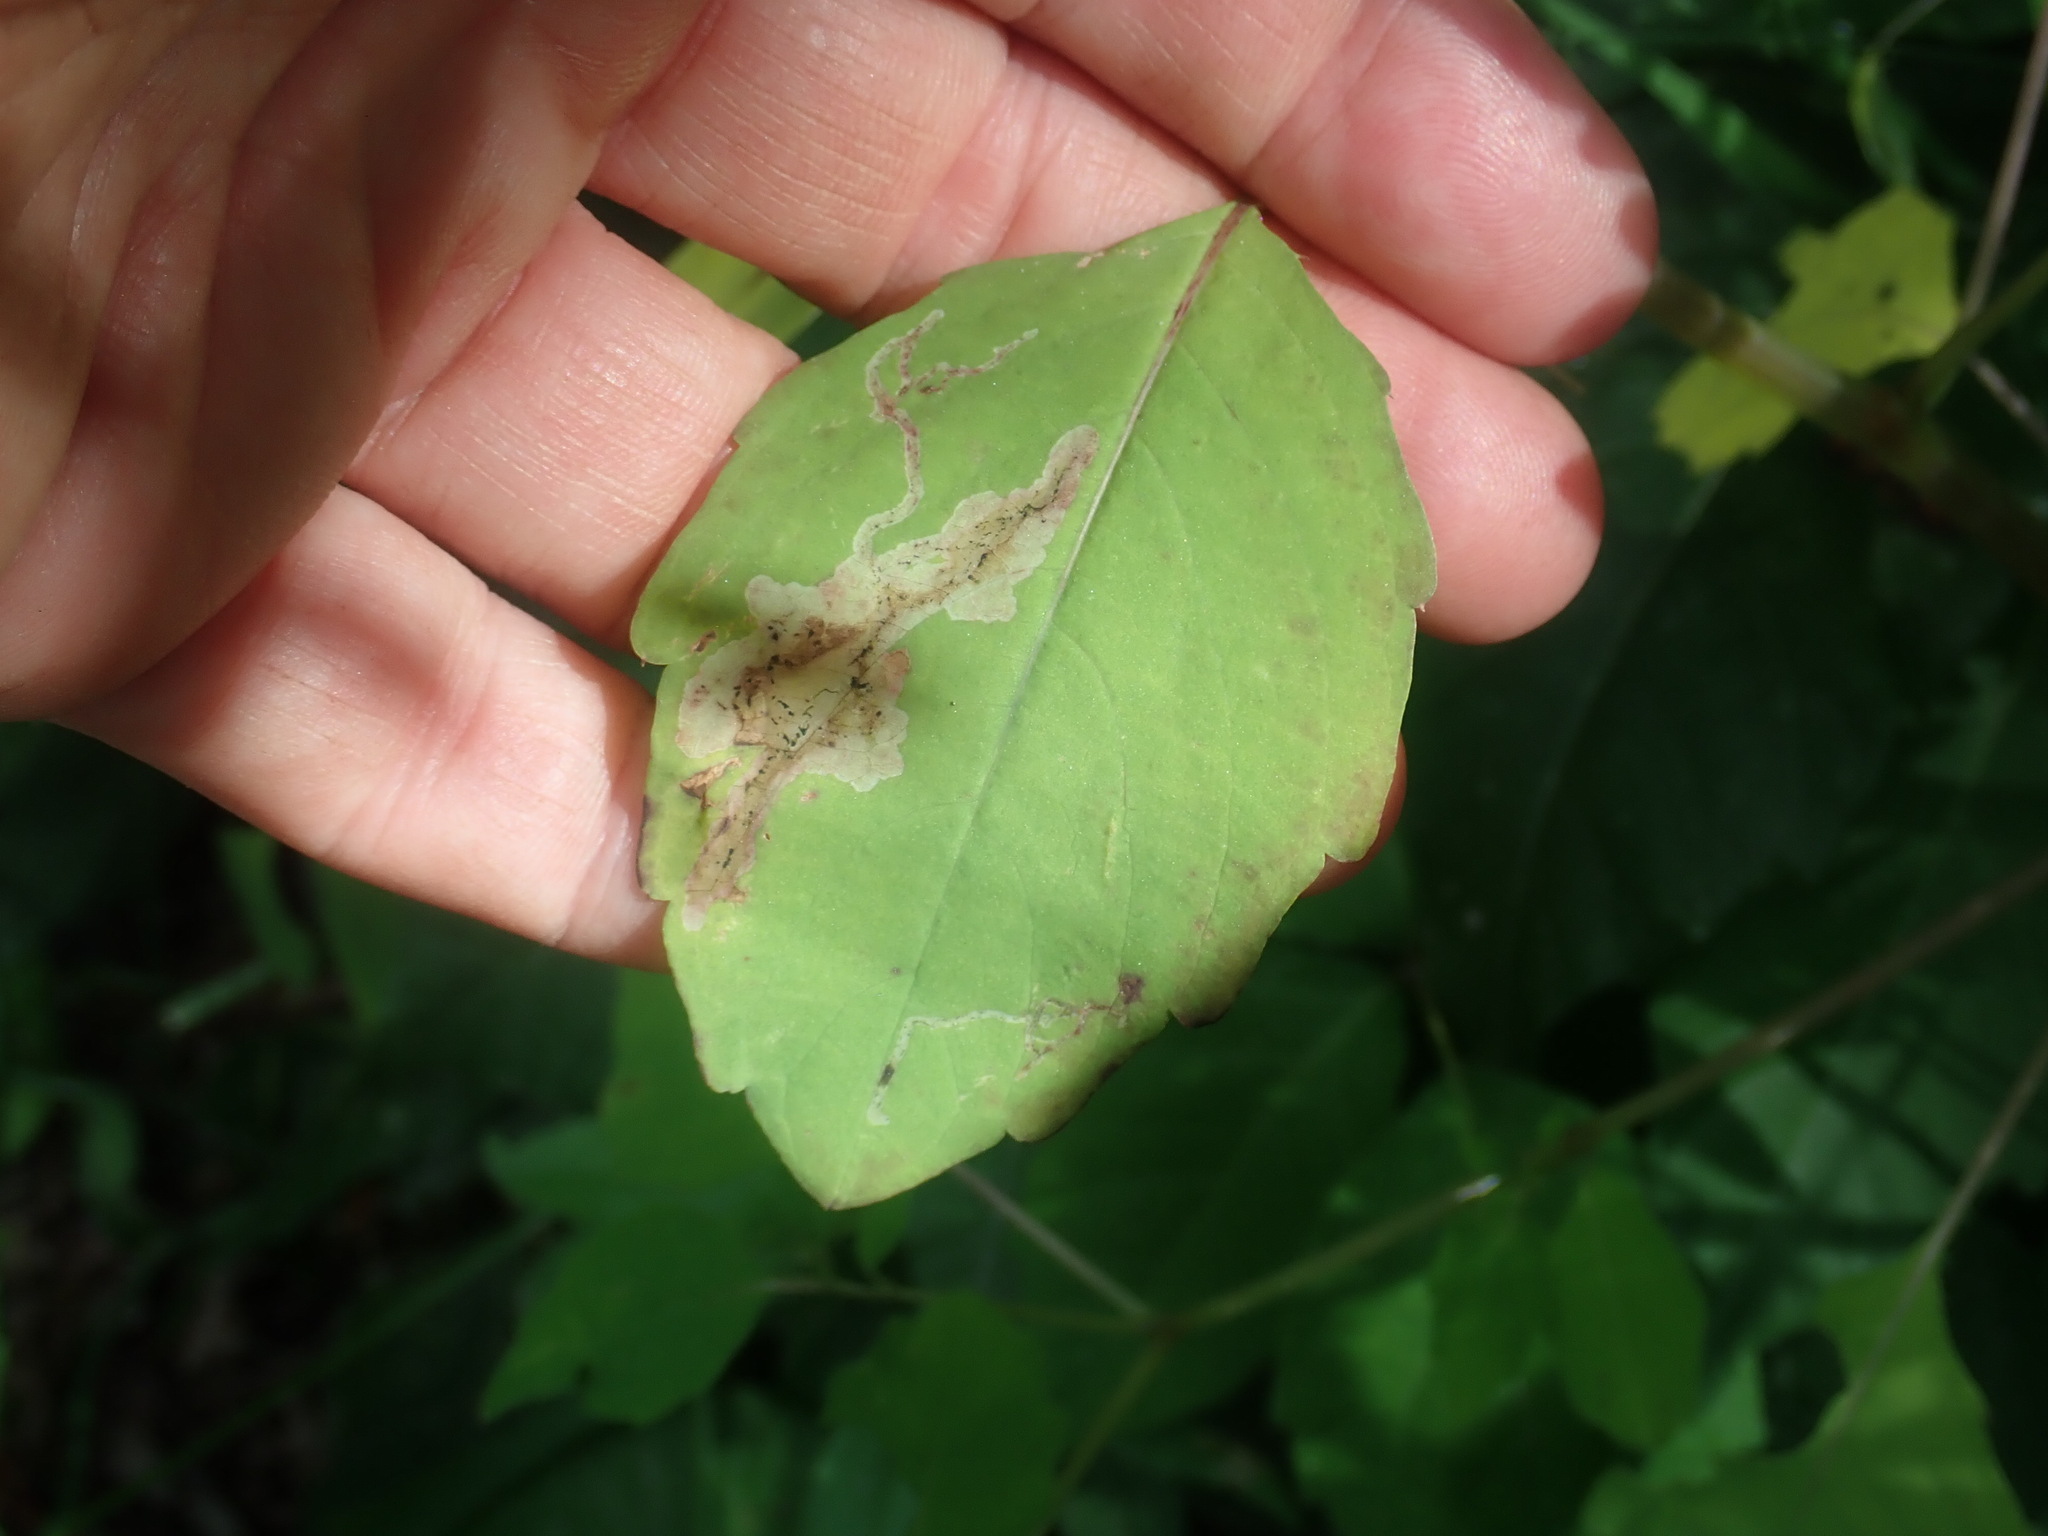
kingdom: Animalia
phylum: Arthropoda
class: Insecta
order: Diptera
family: Agromyzidae
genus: Phytoliriomyza
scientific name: Phytoliriomyza melampyga
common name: Jewelweed leaf-miner fly
